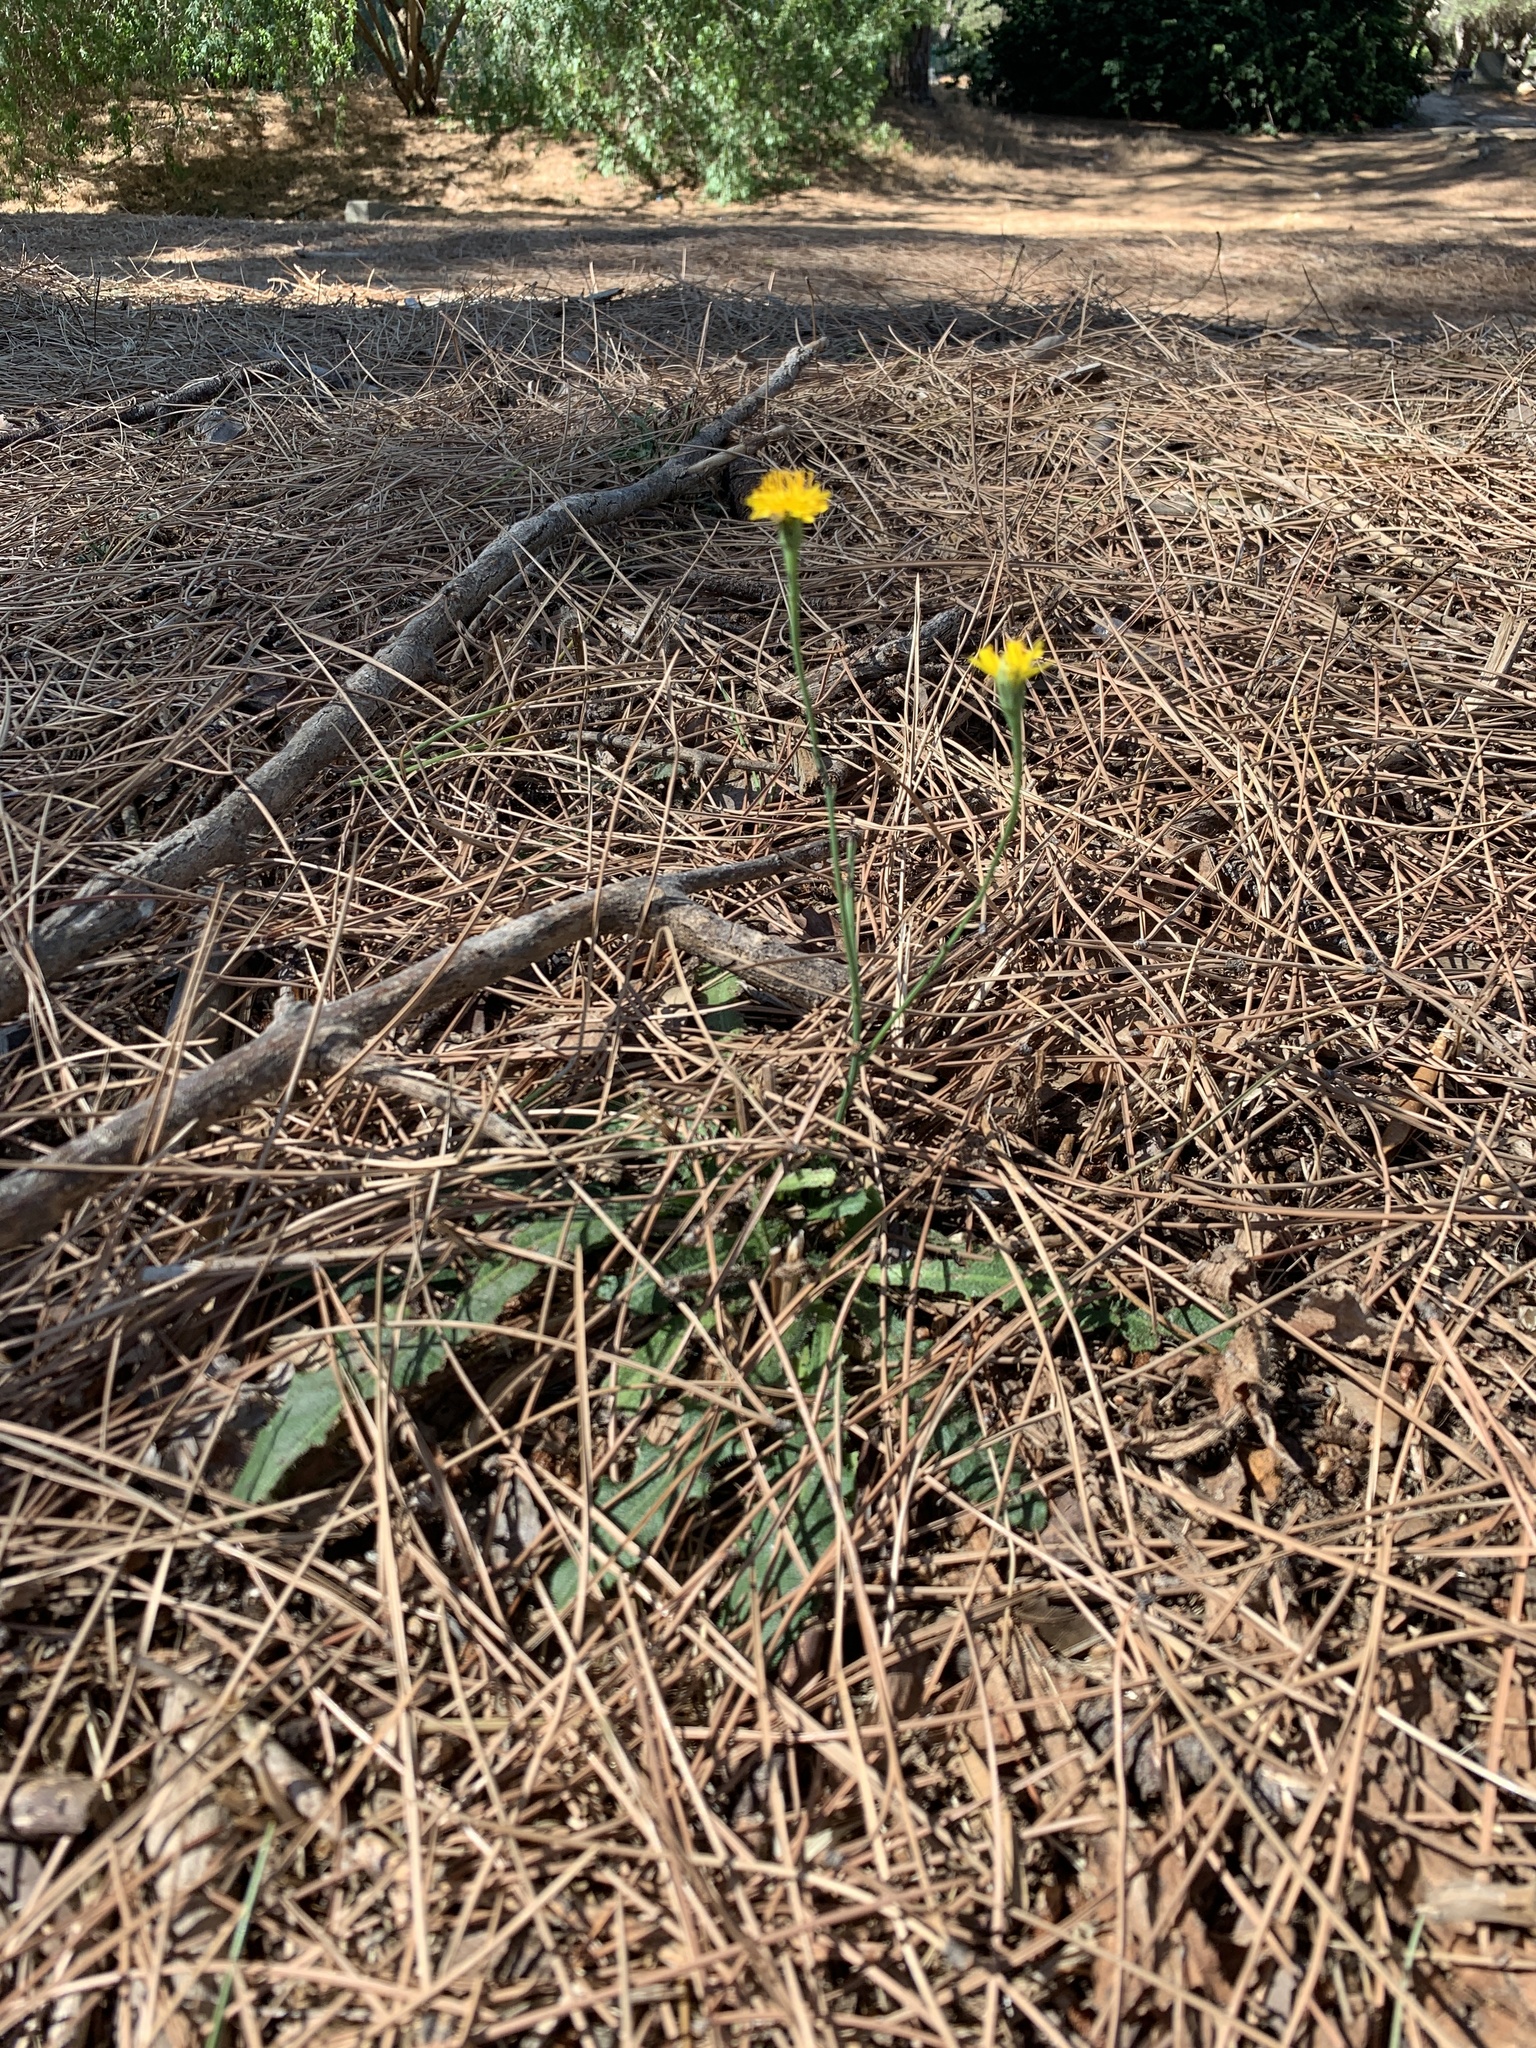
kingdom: Plantae
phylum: Tracheophyta
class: Magnoliopsida
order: Asterales
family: Asteraceae
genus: Hypochaeris
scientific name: Hypochaeris radicata
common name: Flatweed
